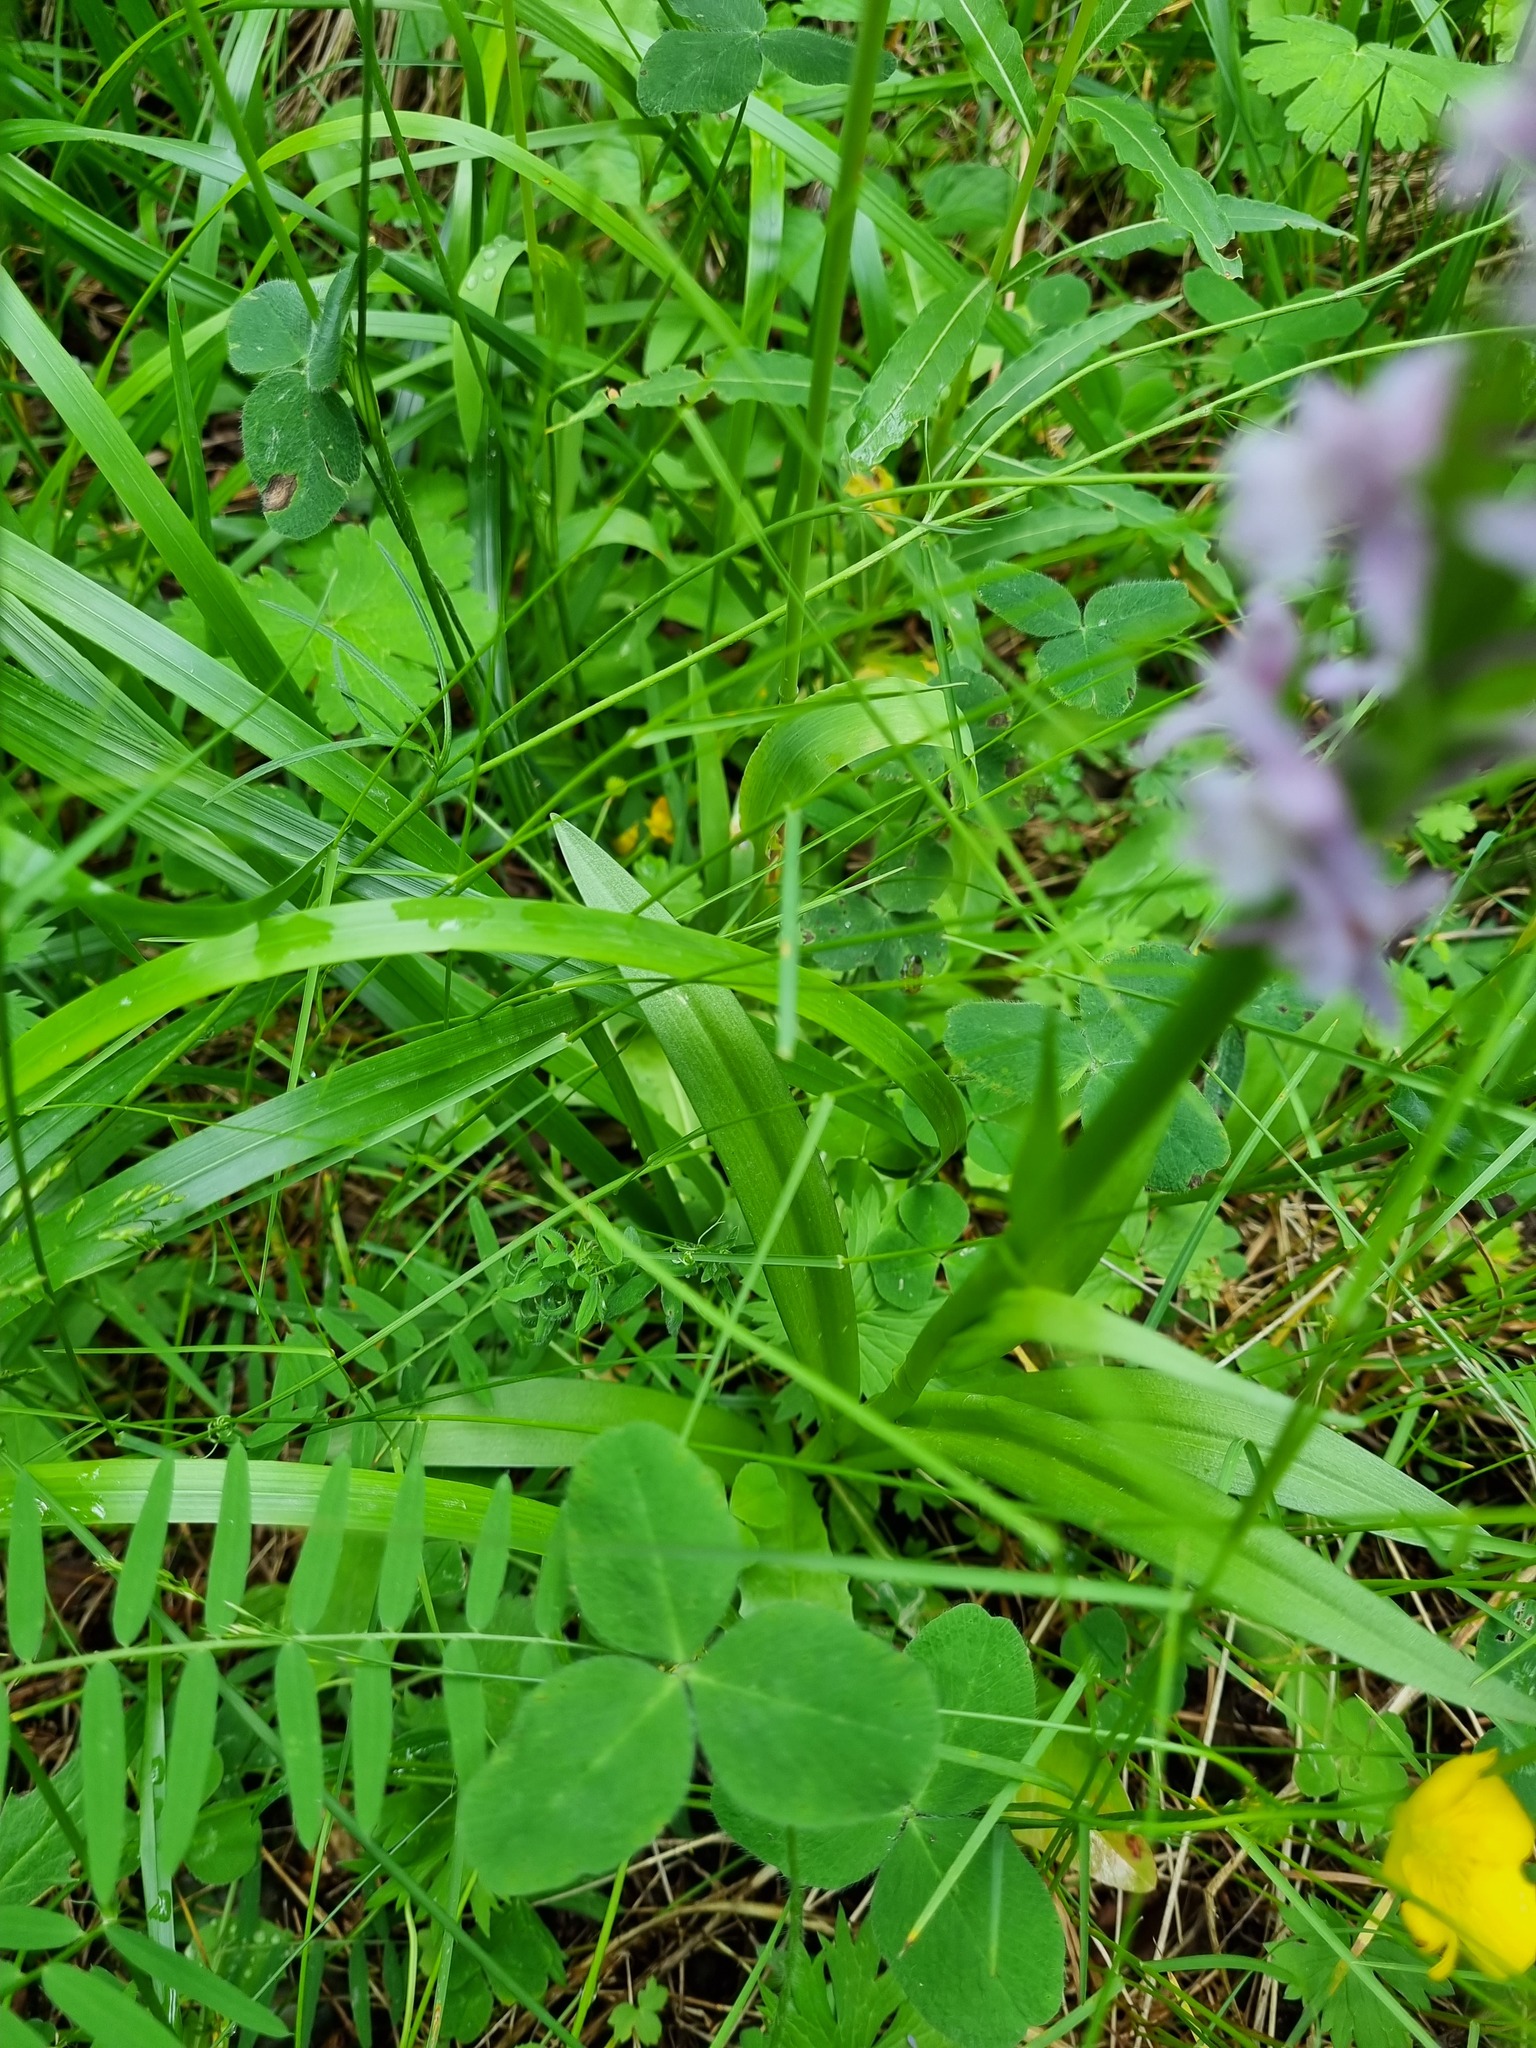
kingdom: Plantae
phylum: Tracheophyta
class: Liliopsida
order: Asparagales
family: Orchidaceae
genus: Gymnadenia
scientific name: Gymnadenia conopsea
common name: Fragrant orchid
